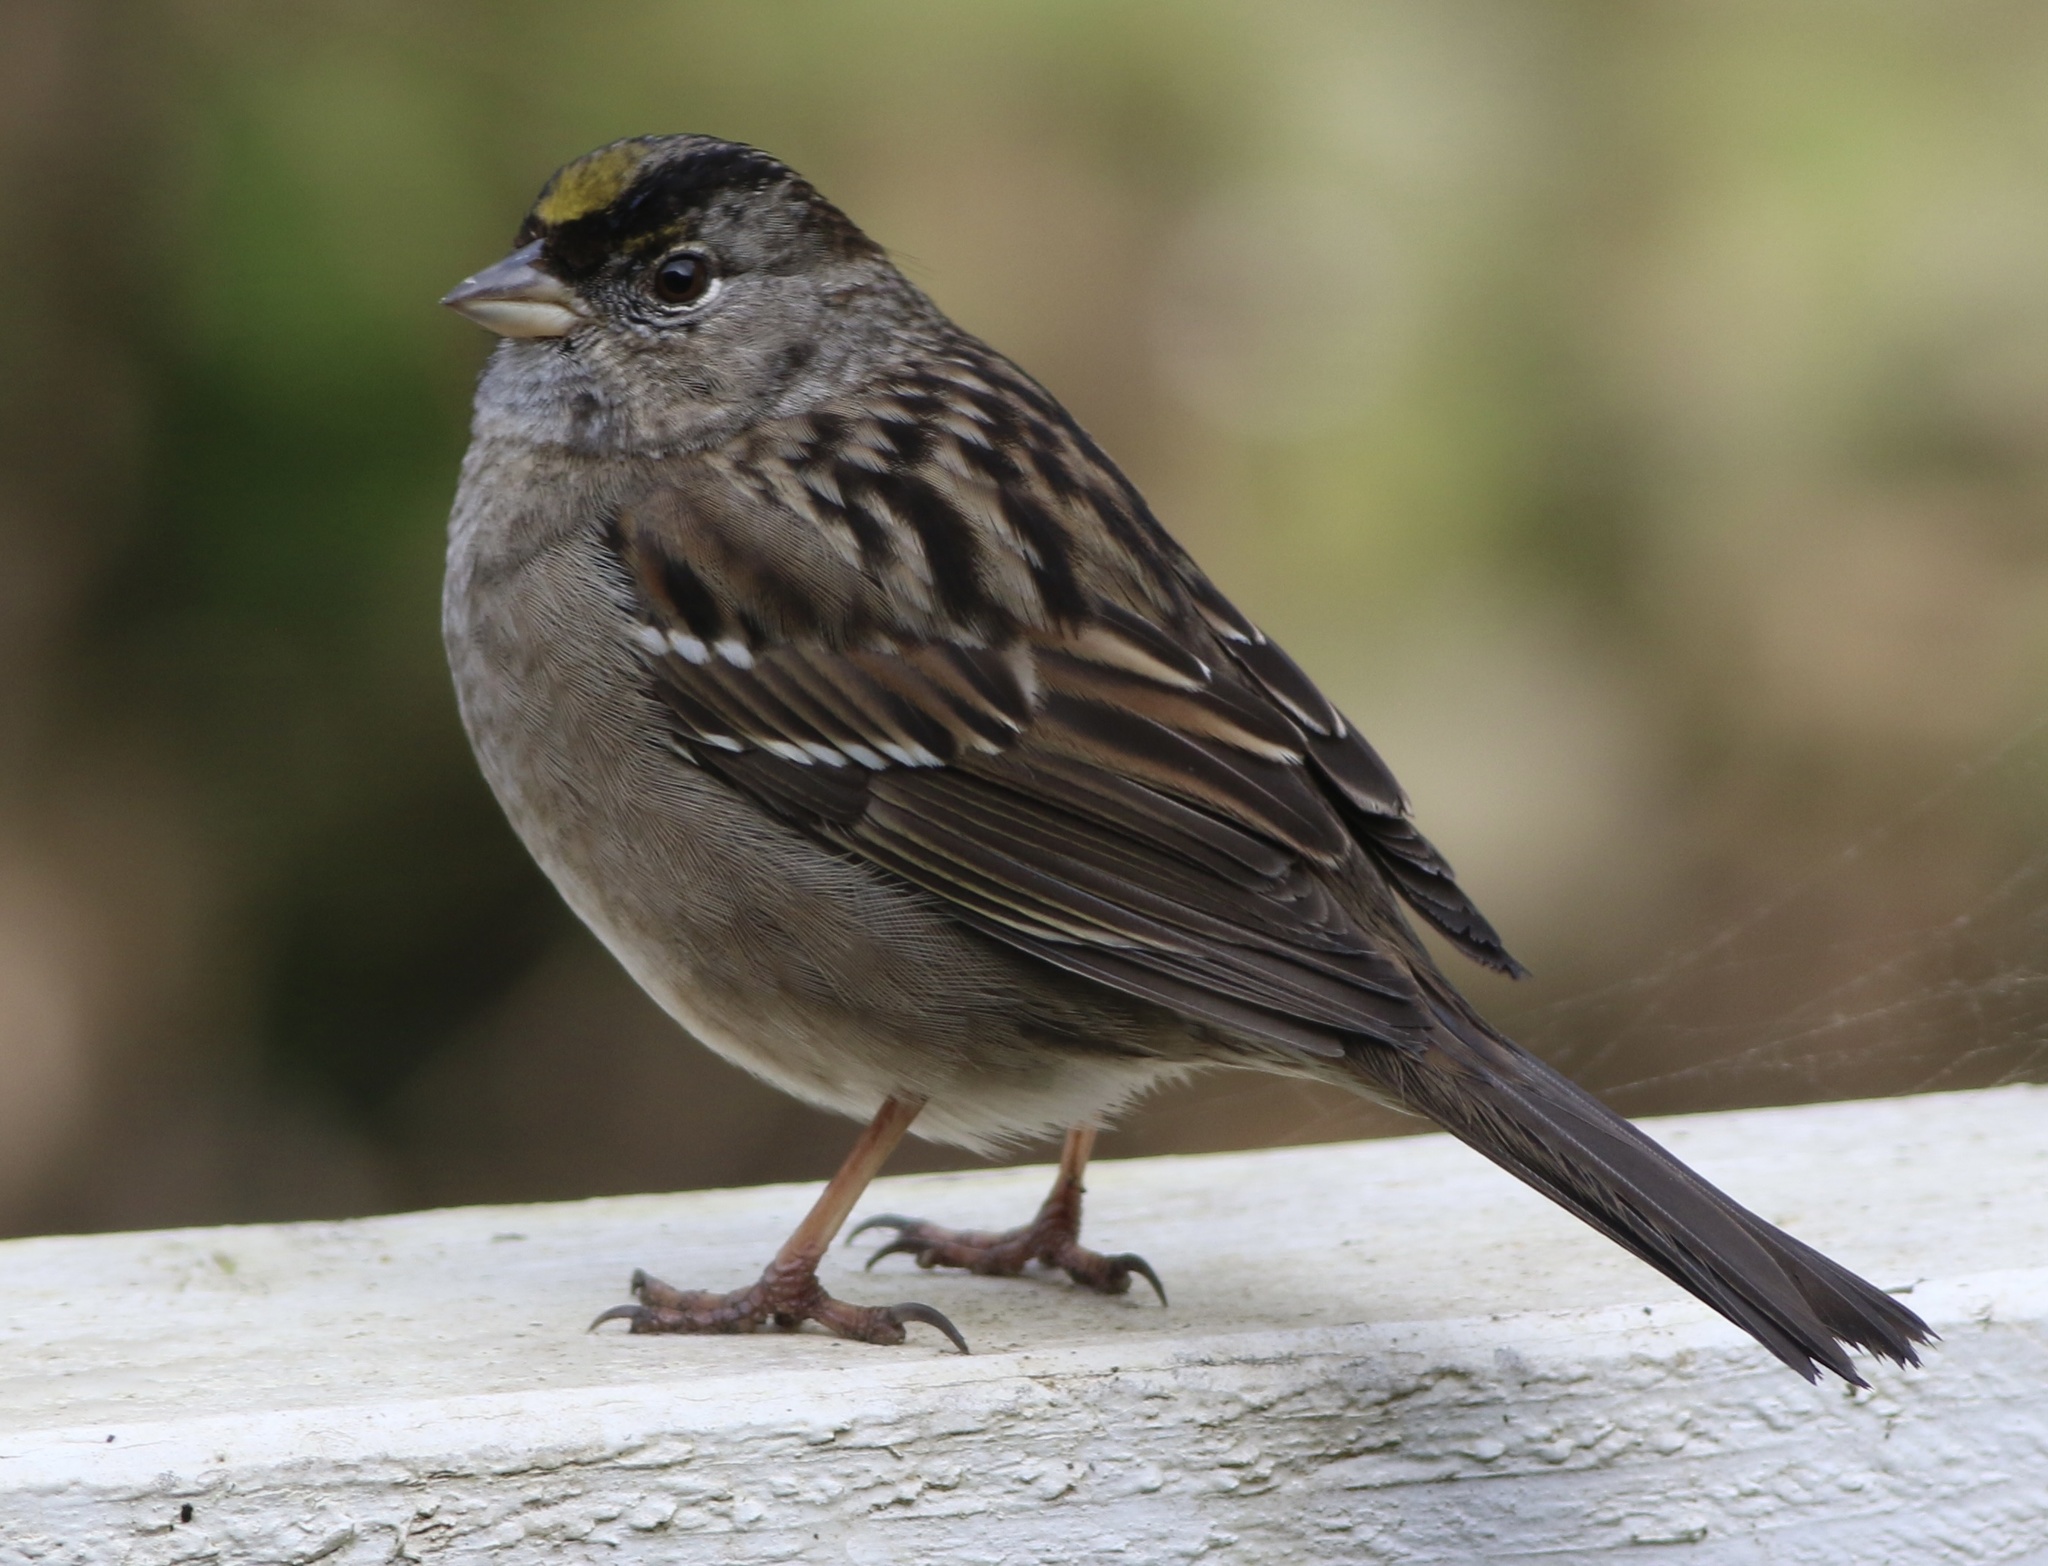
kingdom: Animalia
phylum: Chordata
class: Aves
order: Passeriformes
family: Passerellidae
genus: Zonotrichia
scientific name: Zonotrichia atricapilla
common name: Golden-crowned sparrow
